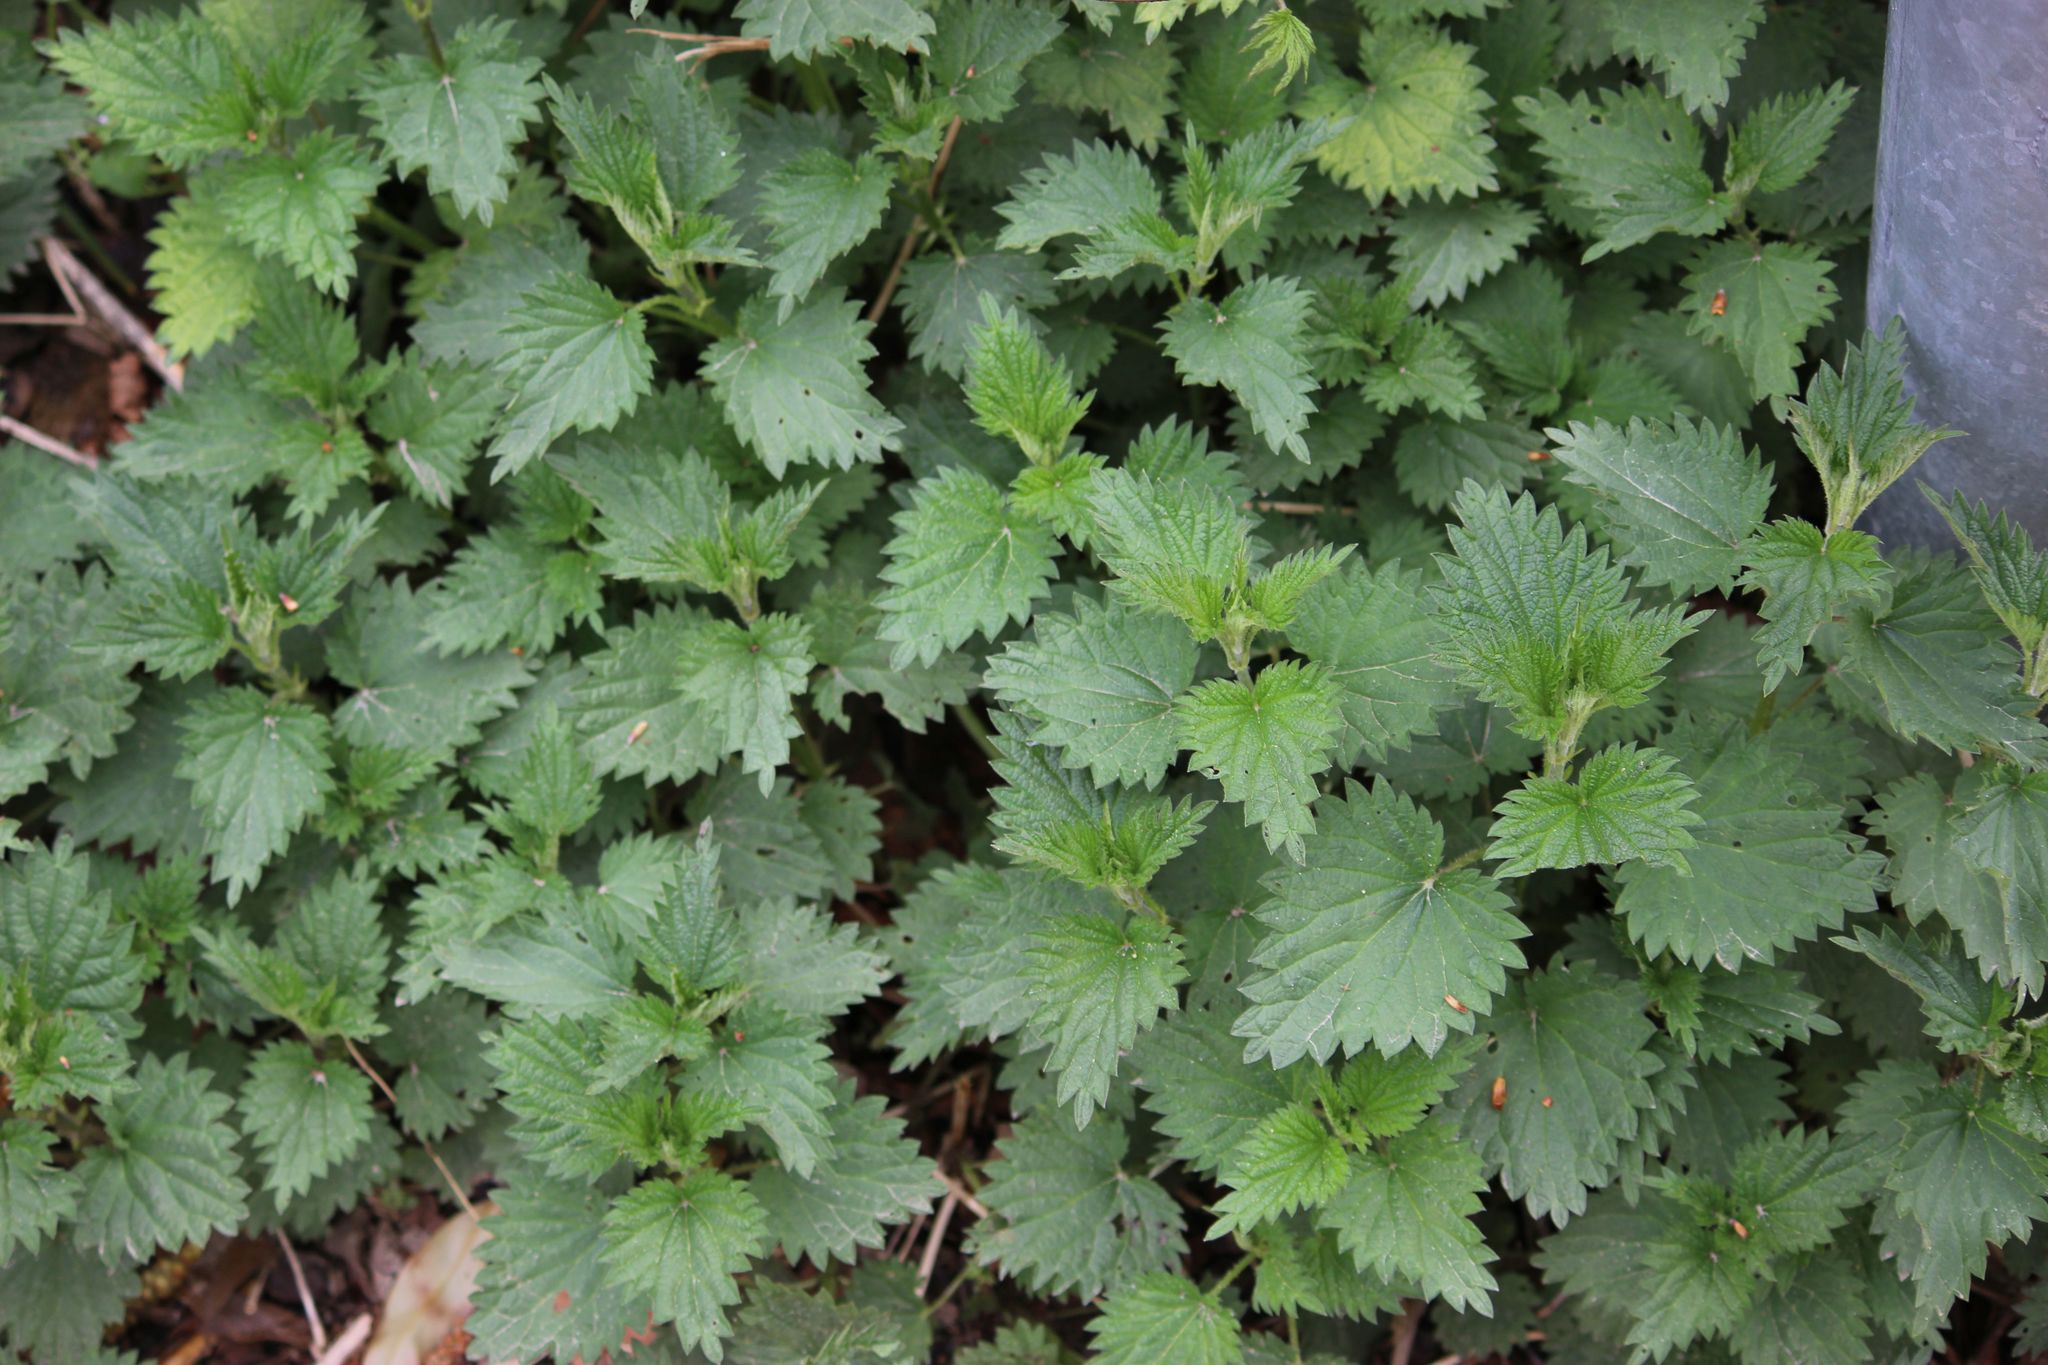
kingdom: Plantae
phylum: Tracheophyta
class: Magnoliopsida
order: Rosales
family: Urticaceae
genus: Urtica
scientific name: Urtica dioica
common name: Common nettle
